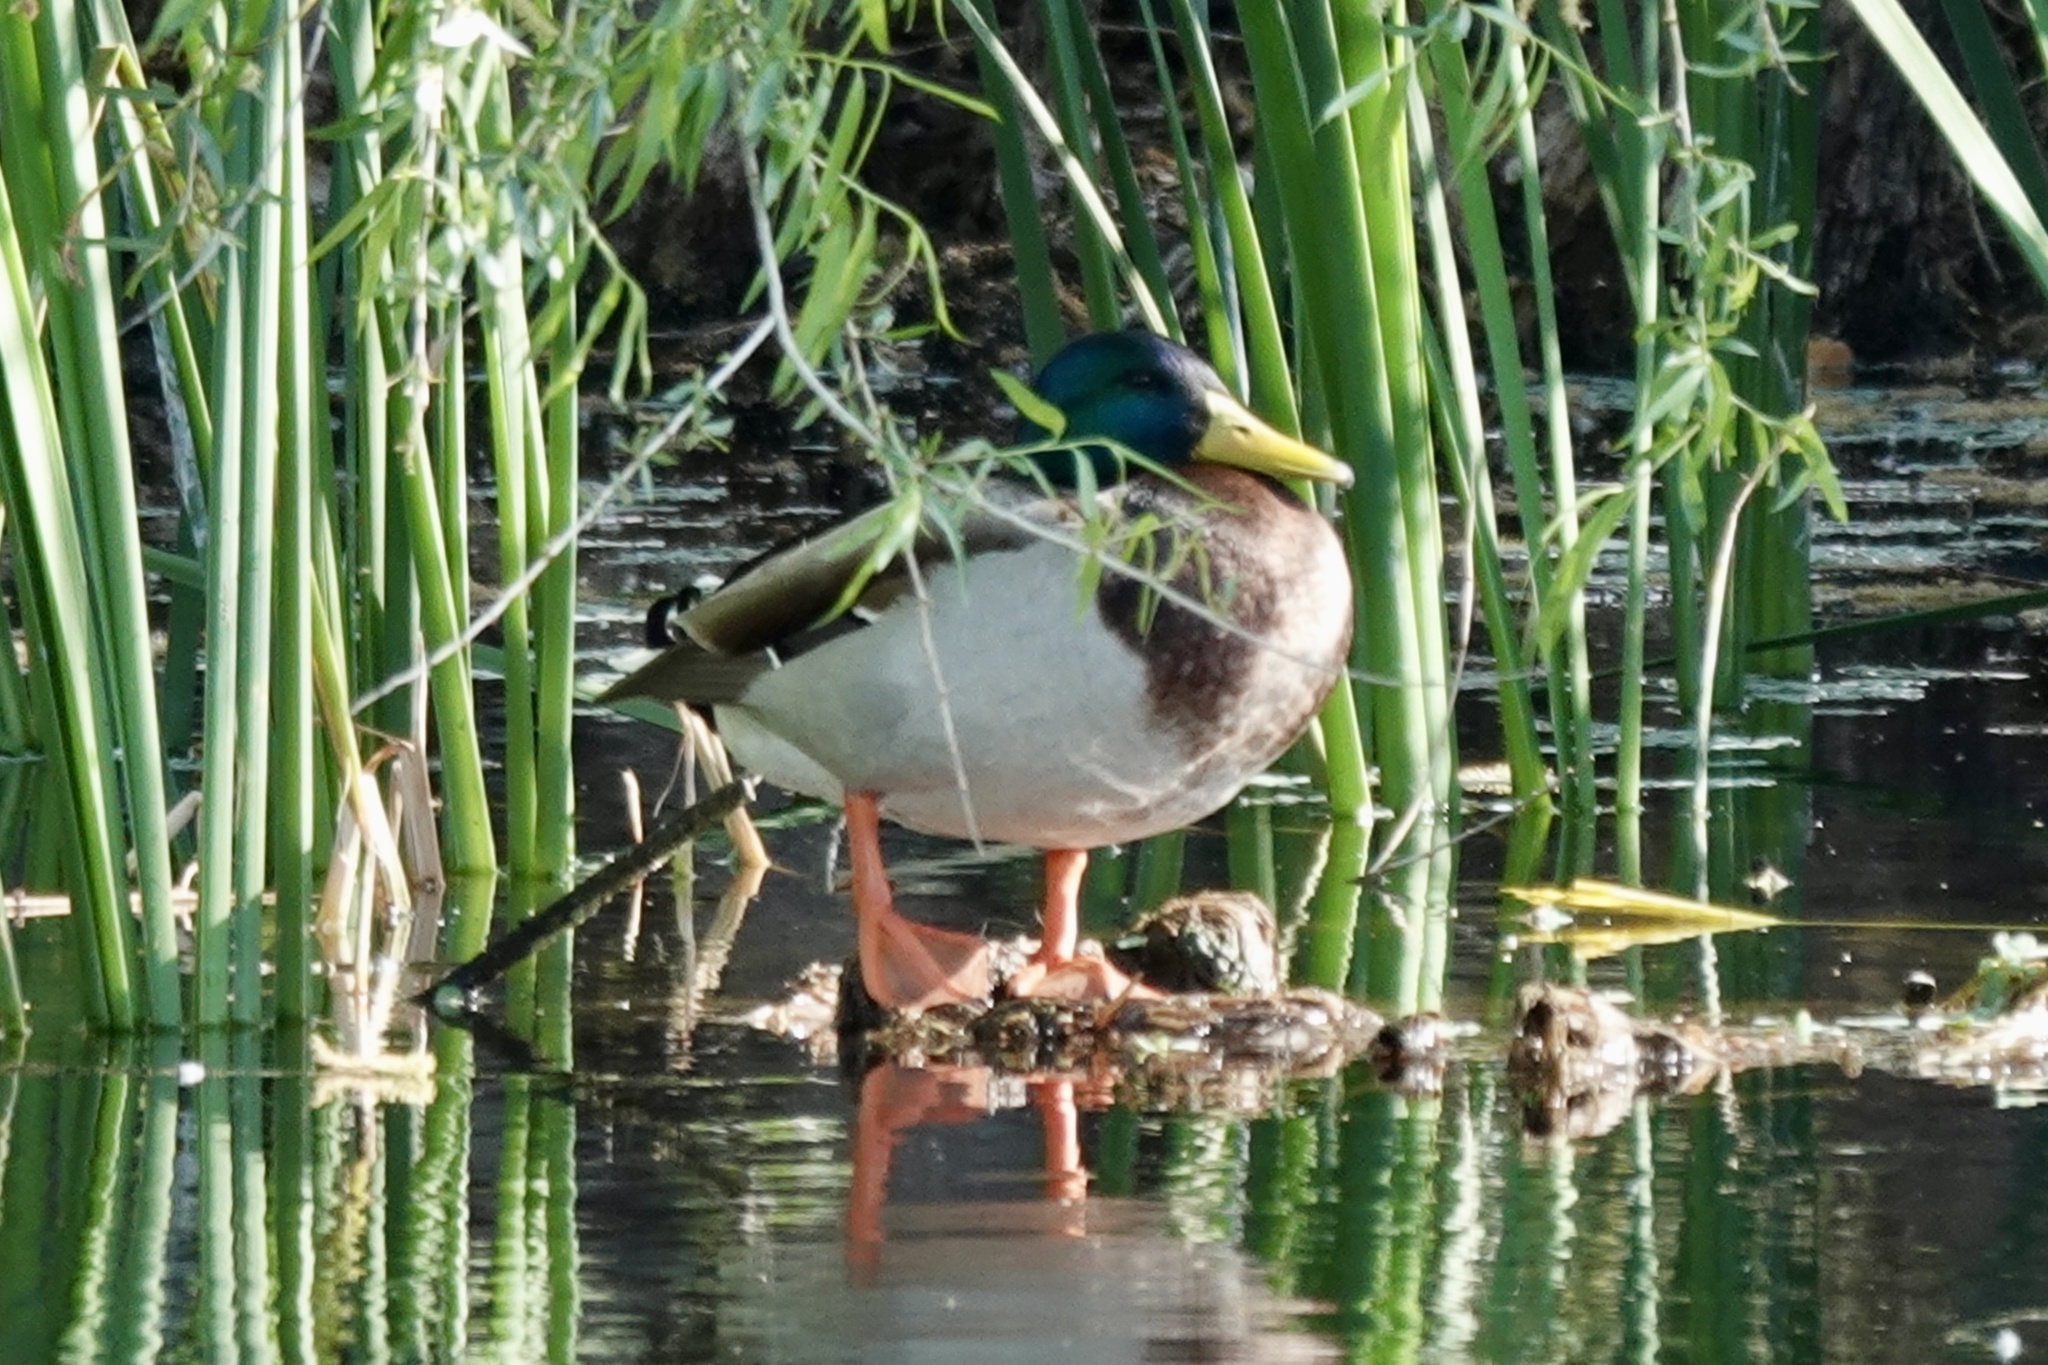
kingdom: Animalia
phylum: Chordata
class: Aves
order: Anseriformes
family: Anatidae
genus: Anas
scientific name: Anas platyrhynchos
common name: Mallard
